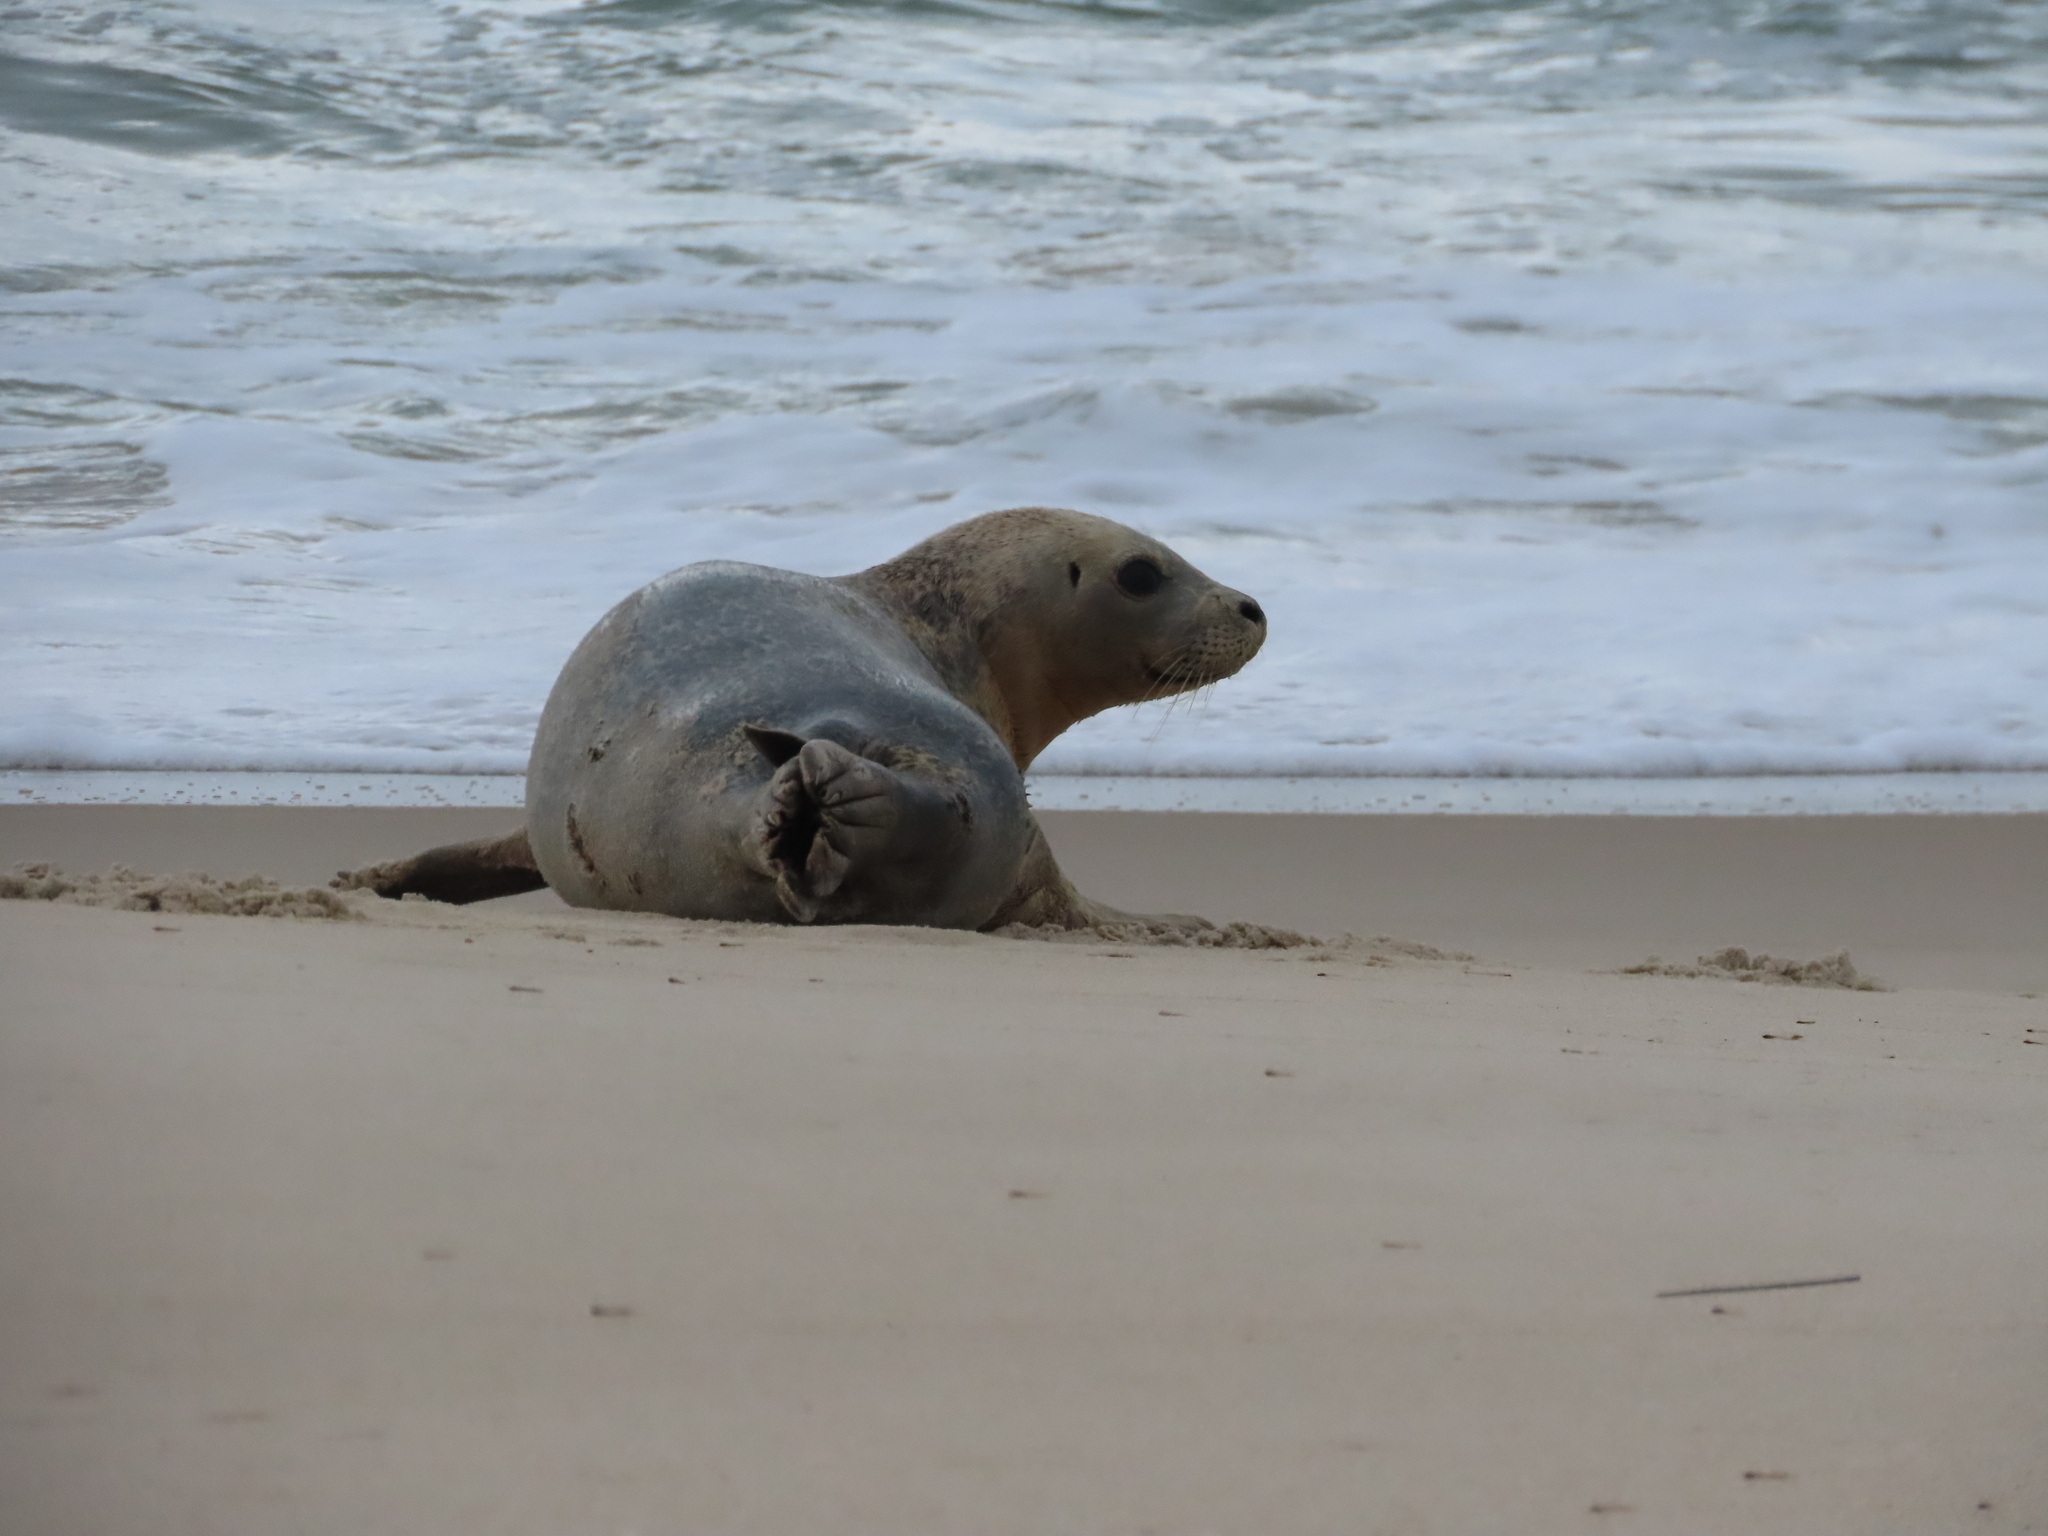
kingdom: Animalia
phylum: Chordata
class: Mammalia
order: Carnivora
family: Phocidae
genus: Phoca
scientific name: Phoca vitulina
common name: Harbor seal
